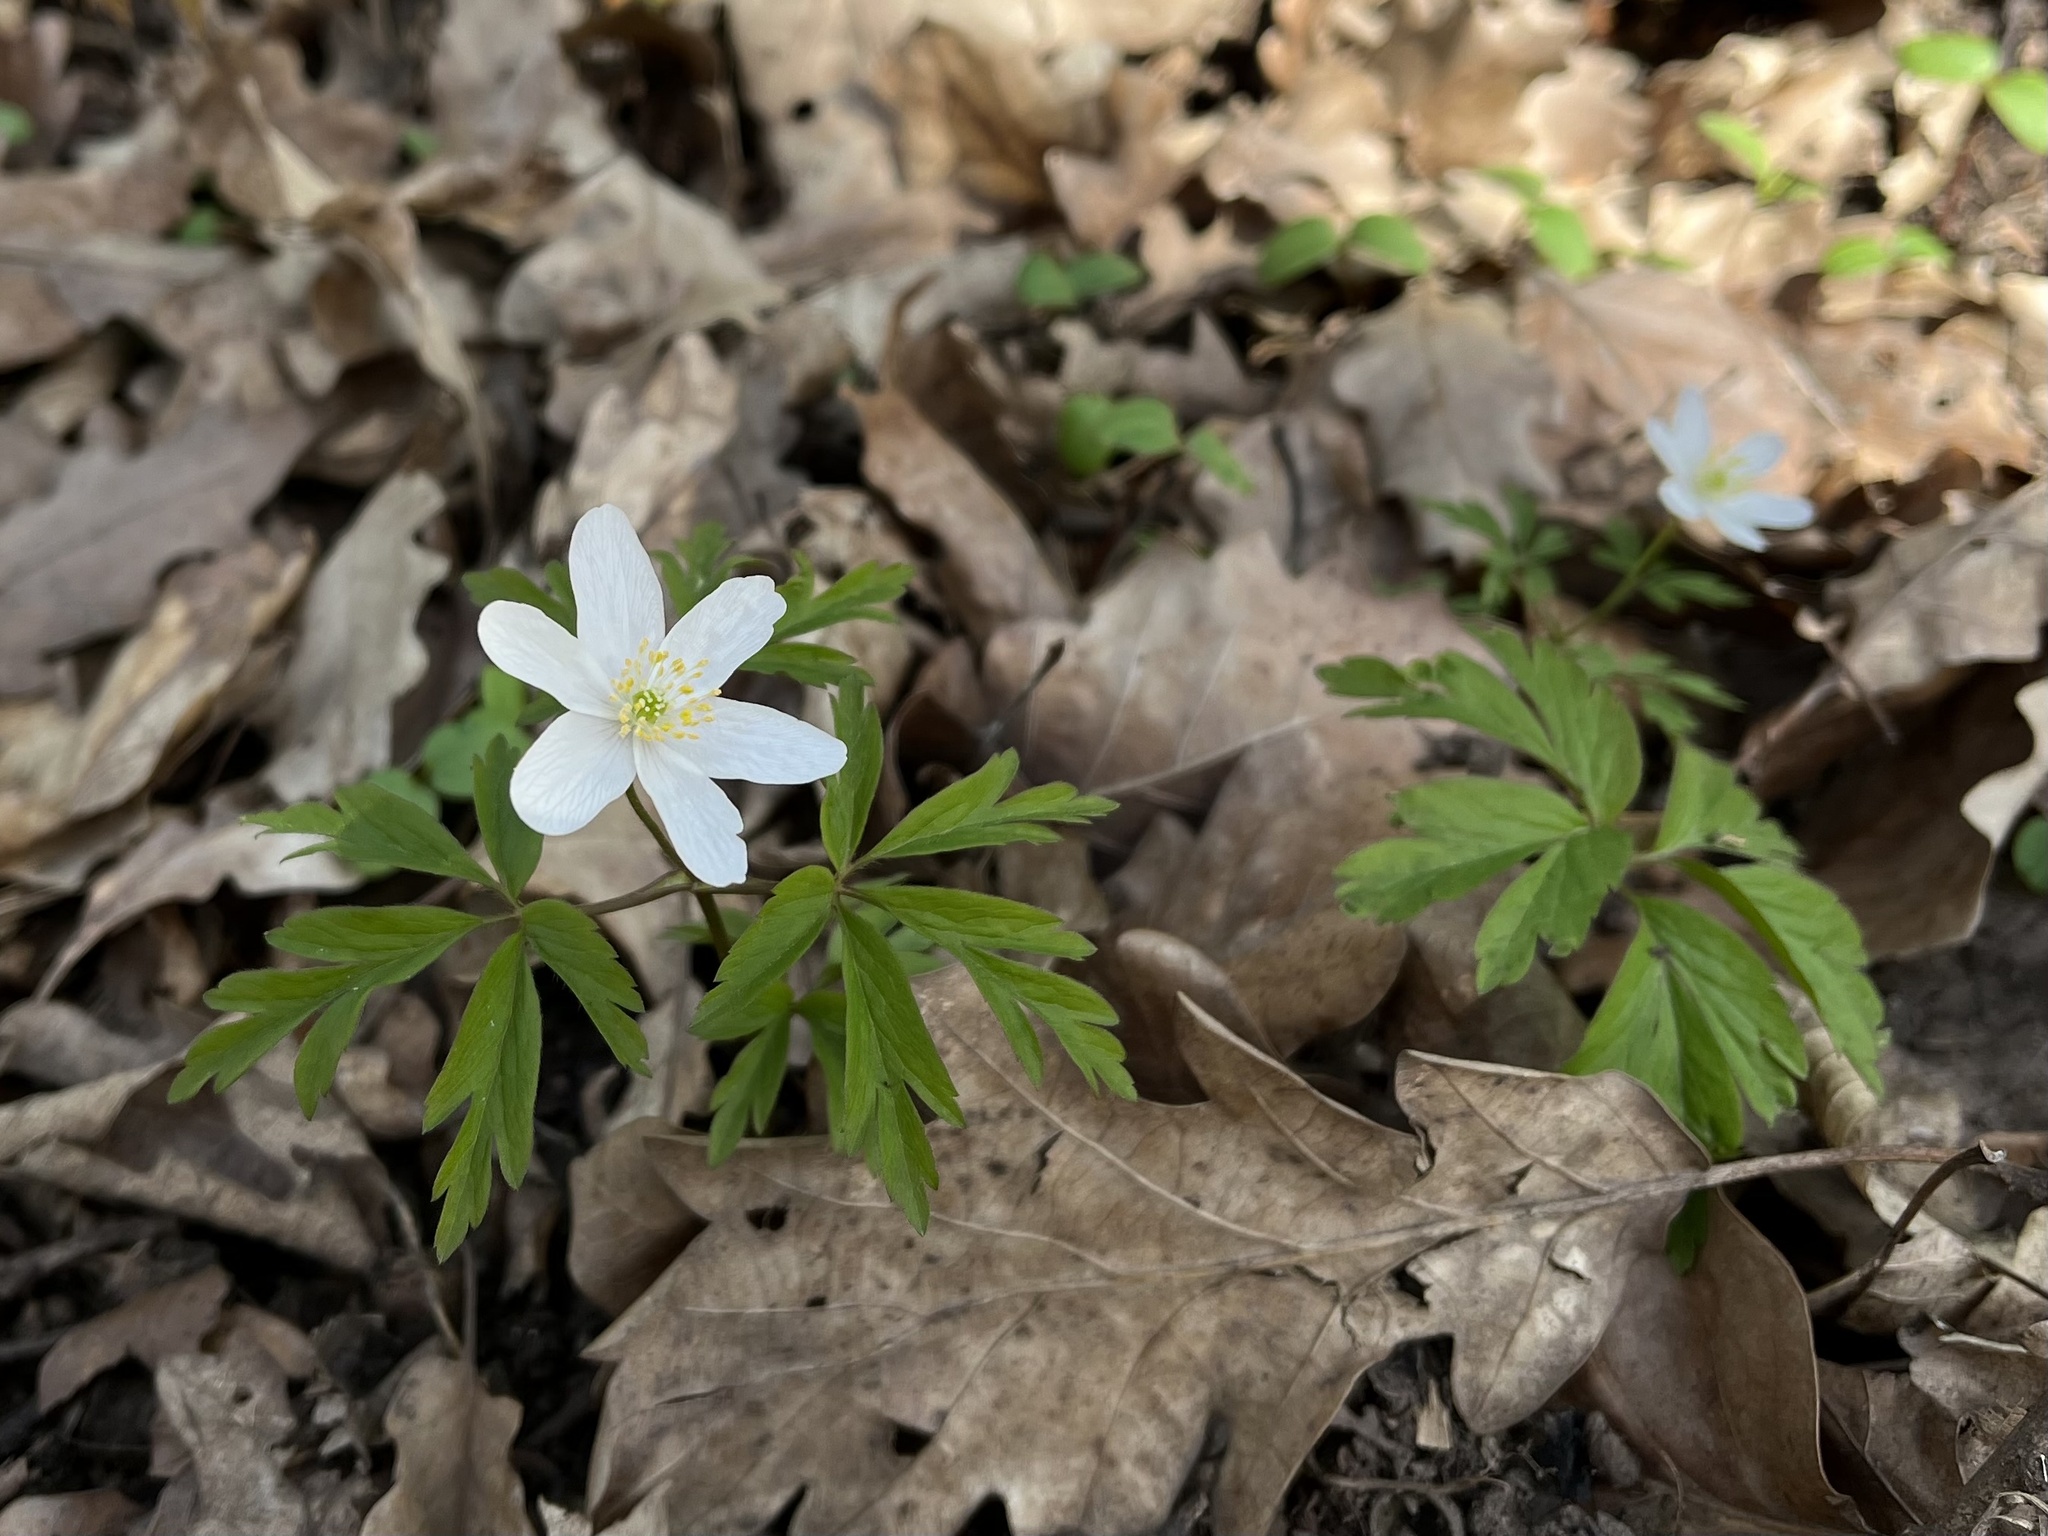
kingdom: Plantae
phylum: Tracheophyta
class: Magnoliopsida
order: Ranunculales
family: Ranunculaceae
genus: Anemone
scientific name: Anemone nemorosa
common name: Wood anemone
